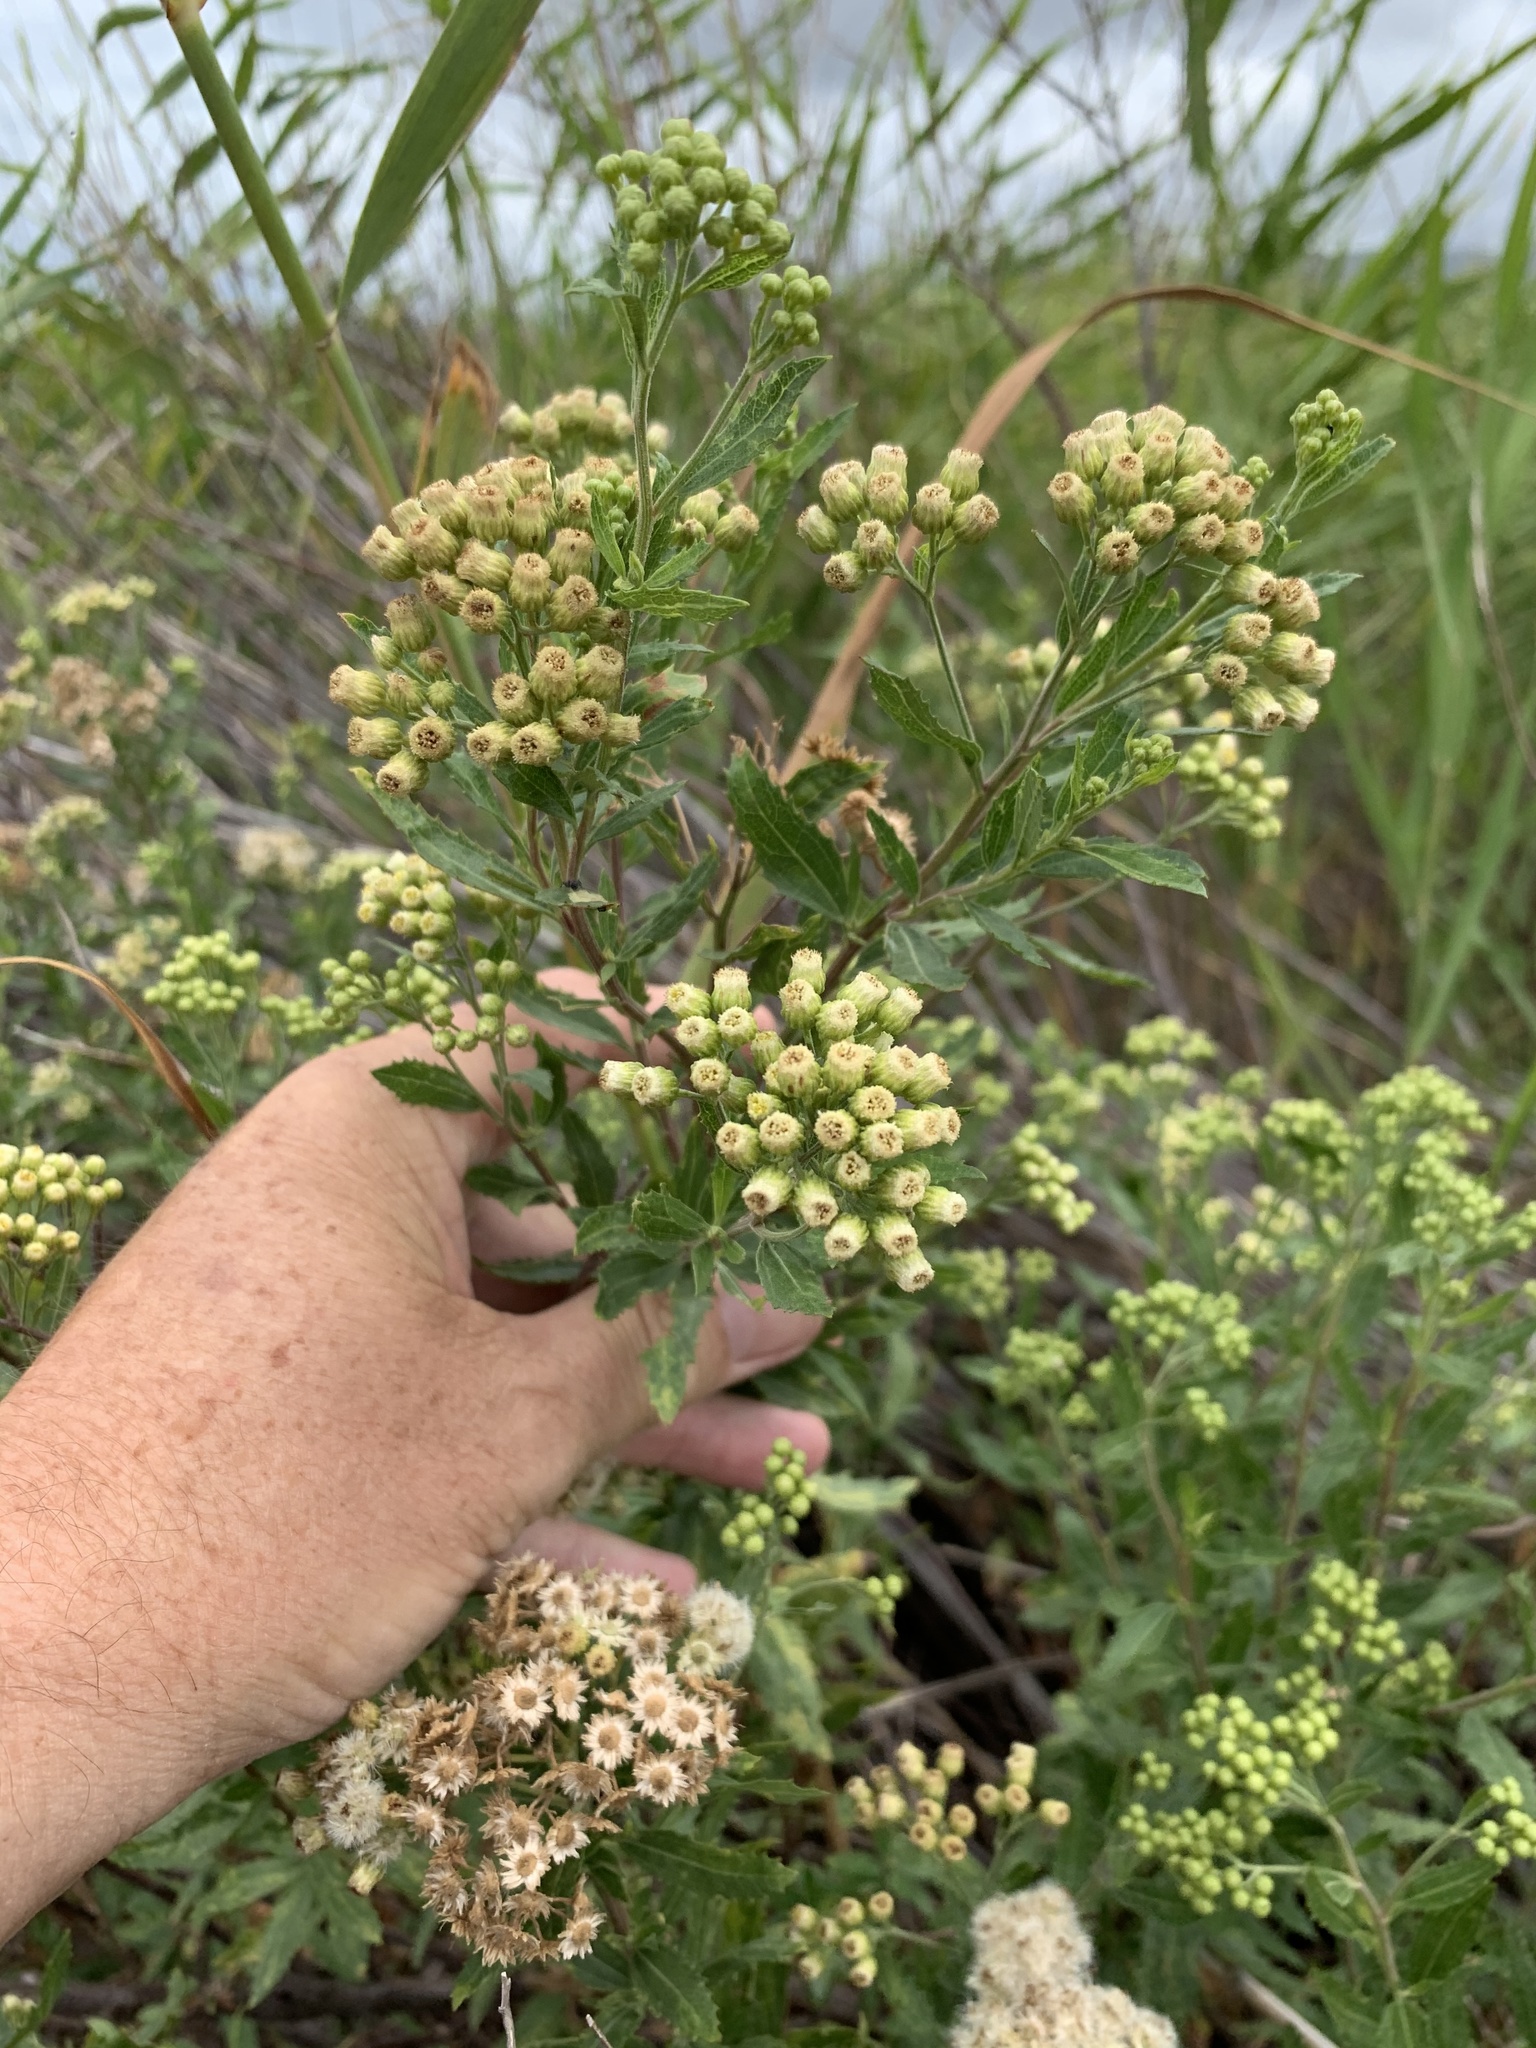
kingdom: Plantae
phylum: Tracheophyta
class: Magnoliopsida
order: Asterales
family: Asteraceae
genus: Nidorella
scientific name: Nidorella ivifolia
